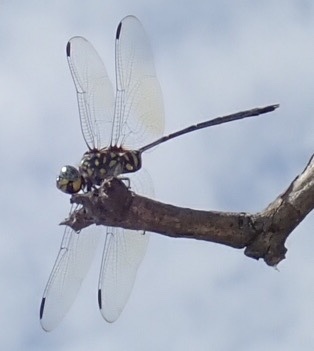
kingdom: Animalia
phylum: Arthropoda
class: Insecta
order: Odonata
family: Libellulidae
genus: Olpogastra
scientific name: Olpogastra lugubris
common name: Bottletail
